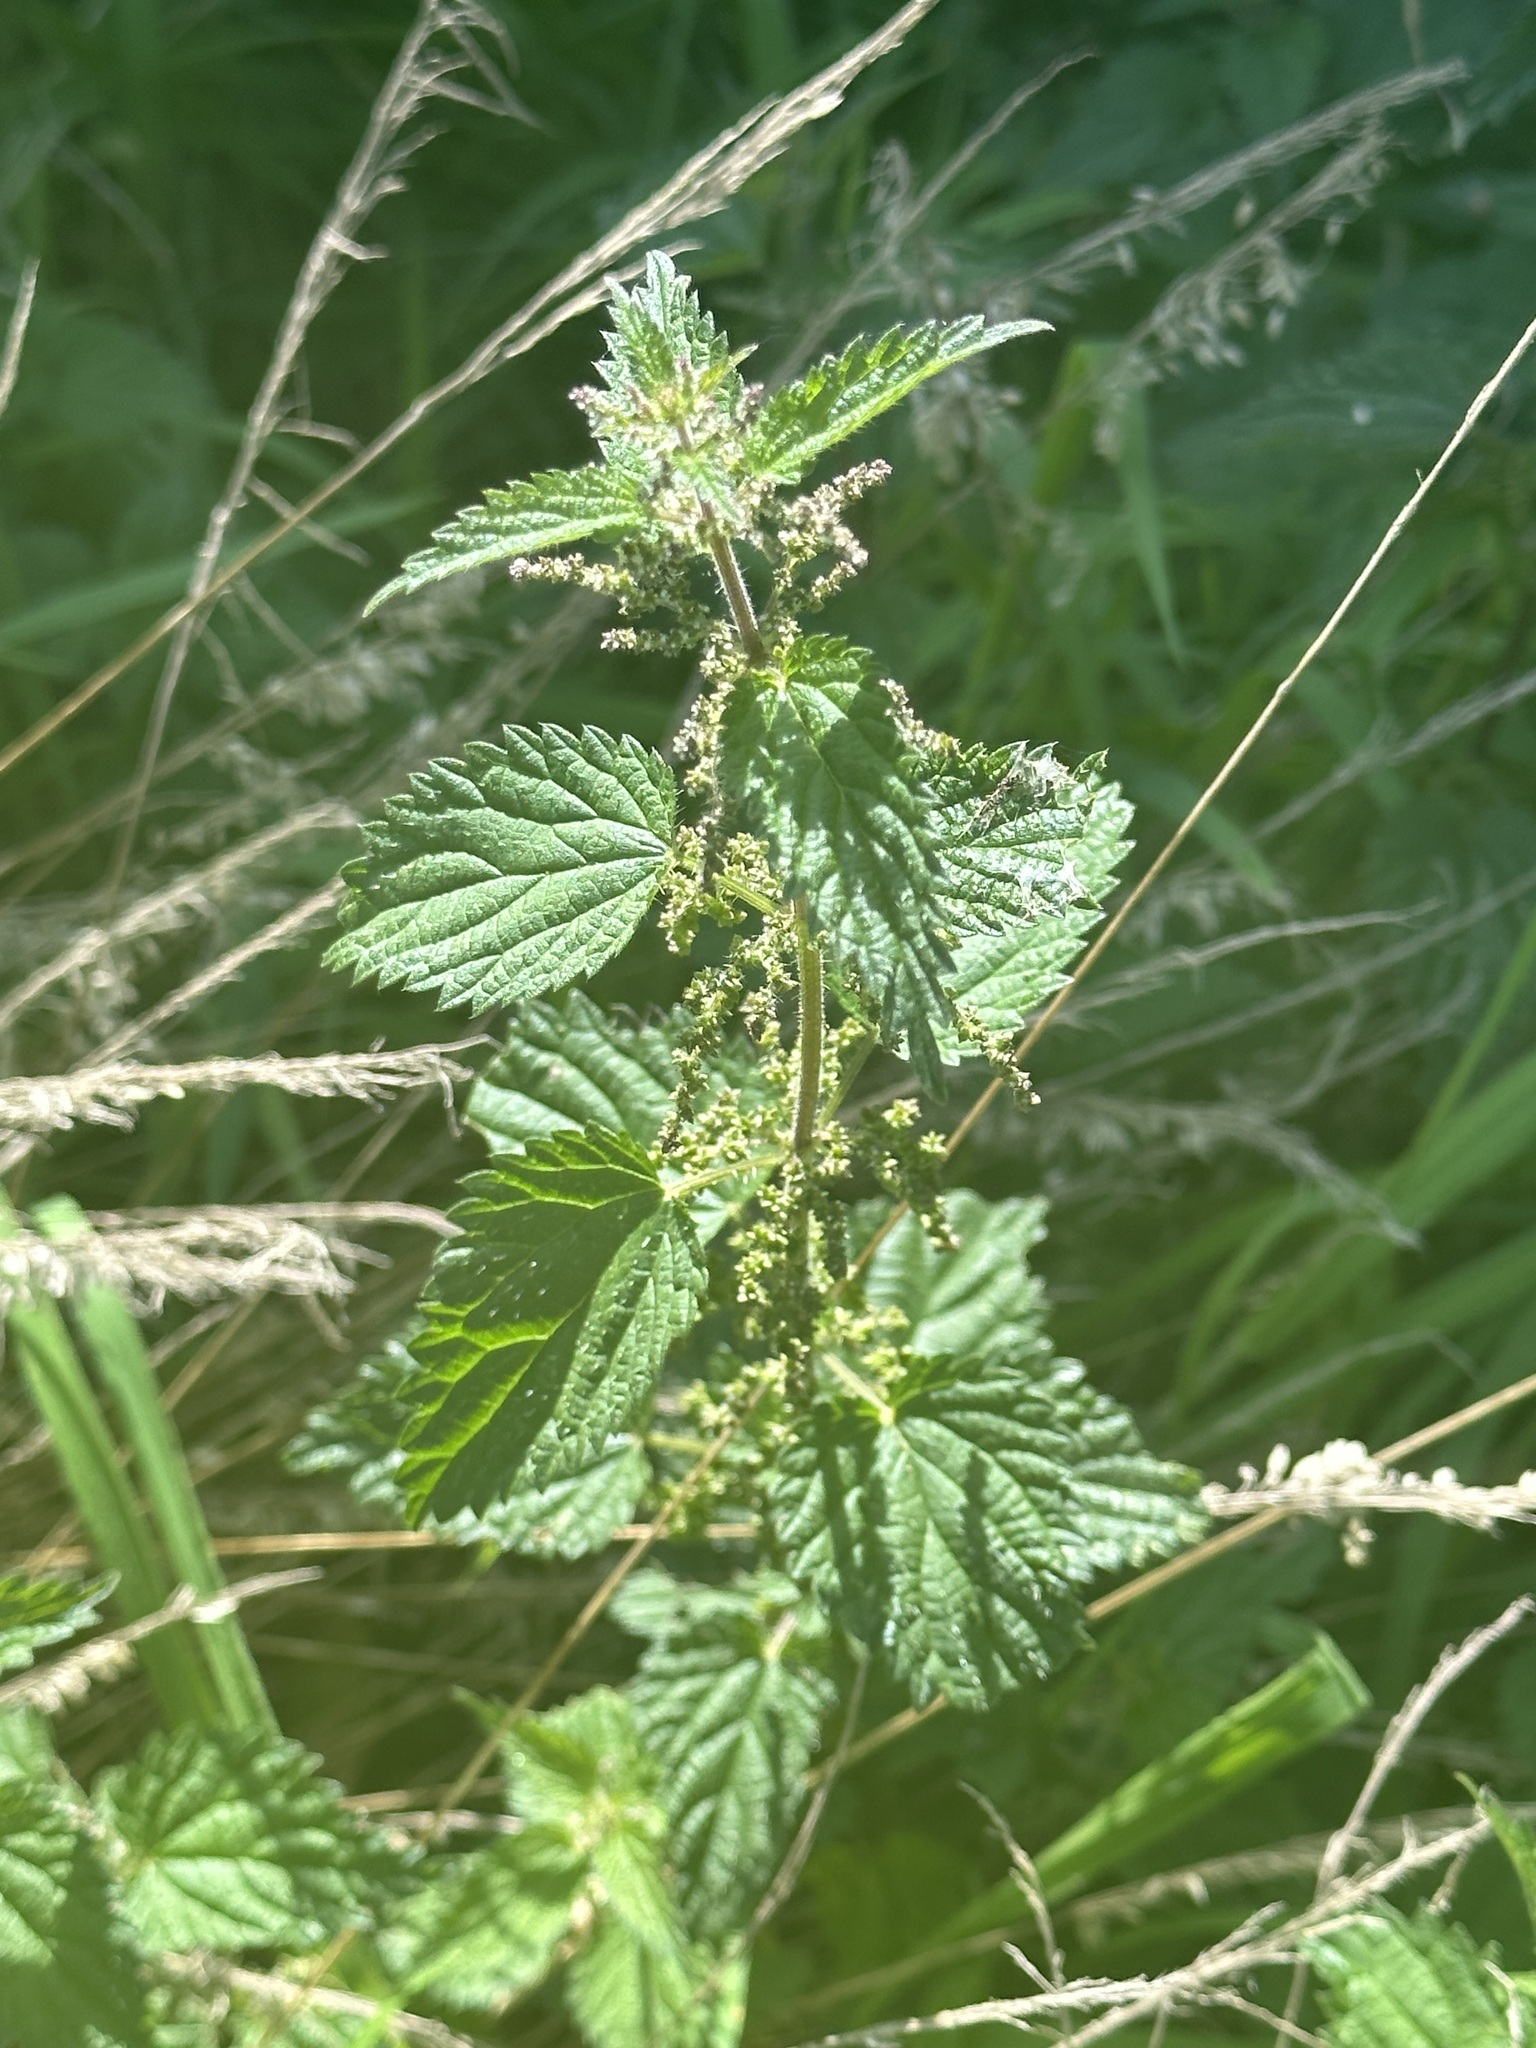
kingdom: Plantae
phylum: Tracheophyta
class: Magnoliopsida
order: Rosales
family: Urticaceae
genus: Urtica
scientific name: Urtica dioica
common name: Common nettle
